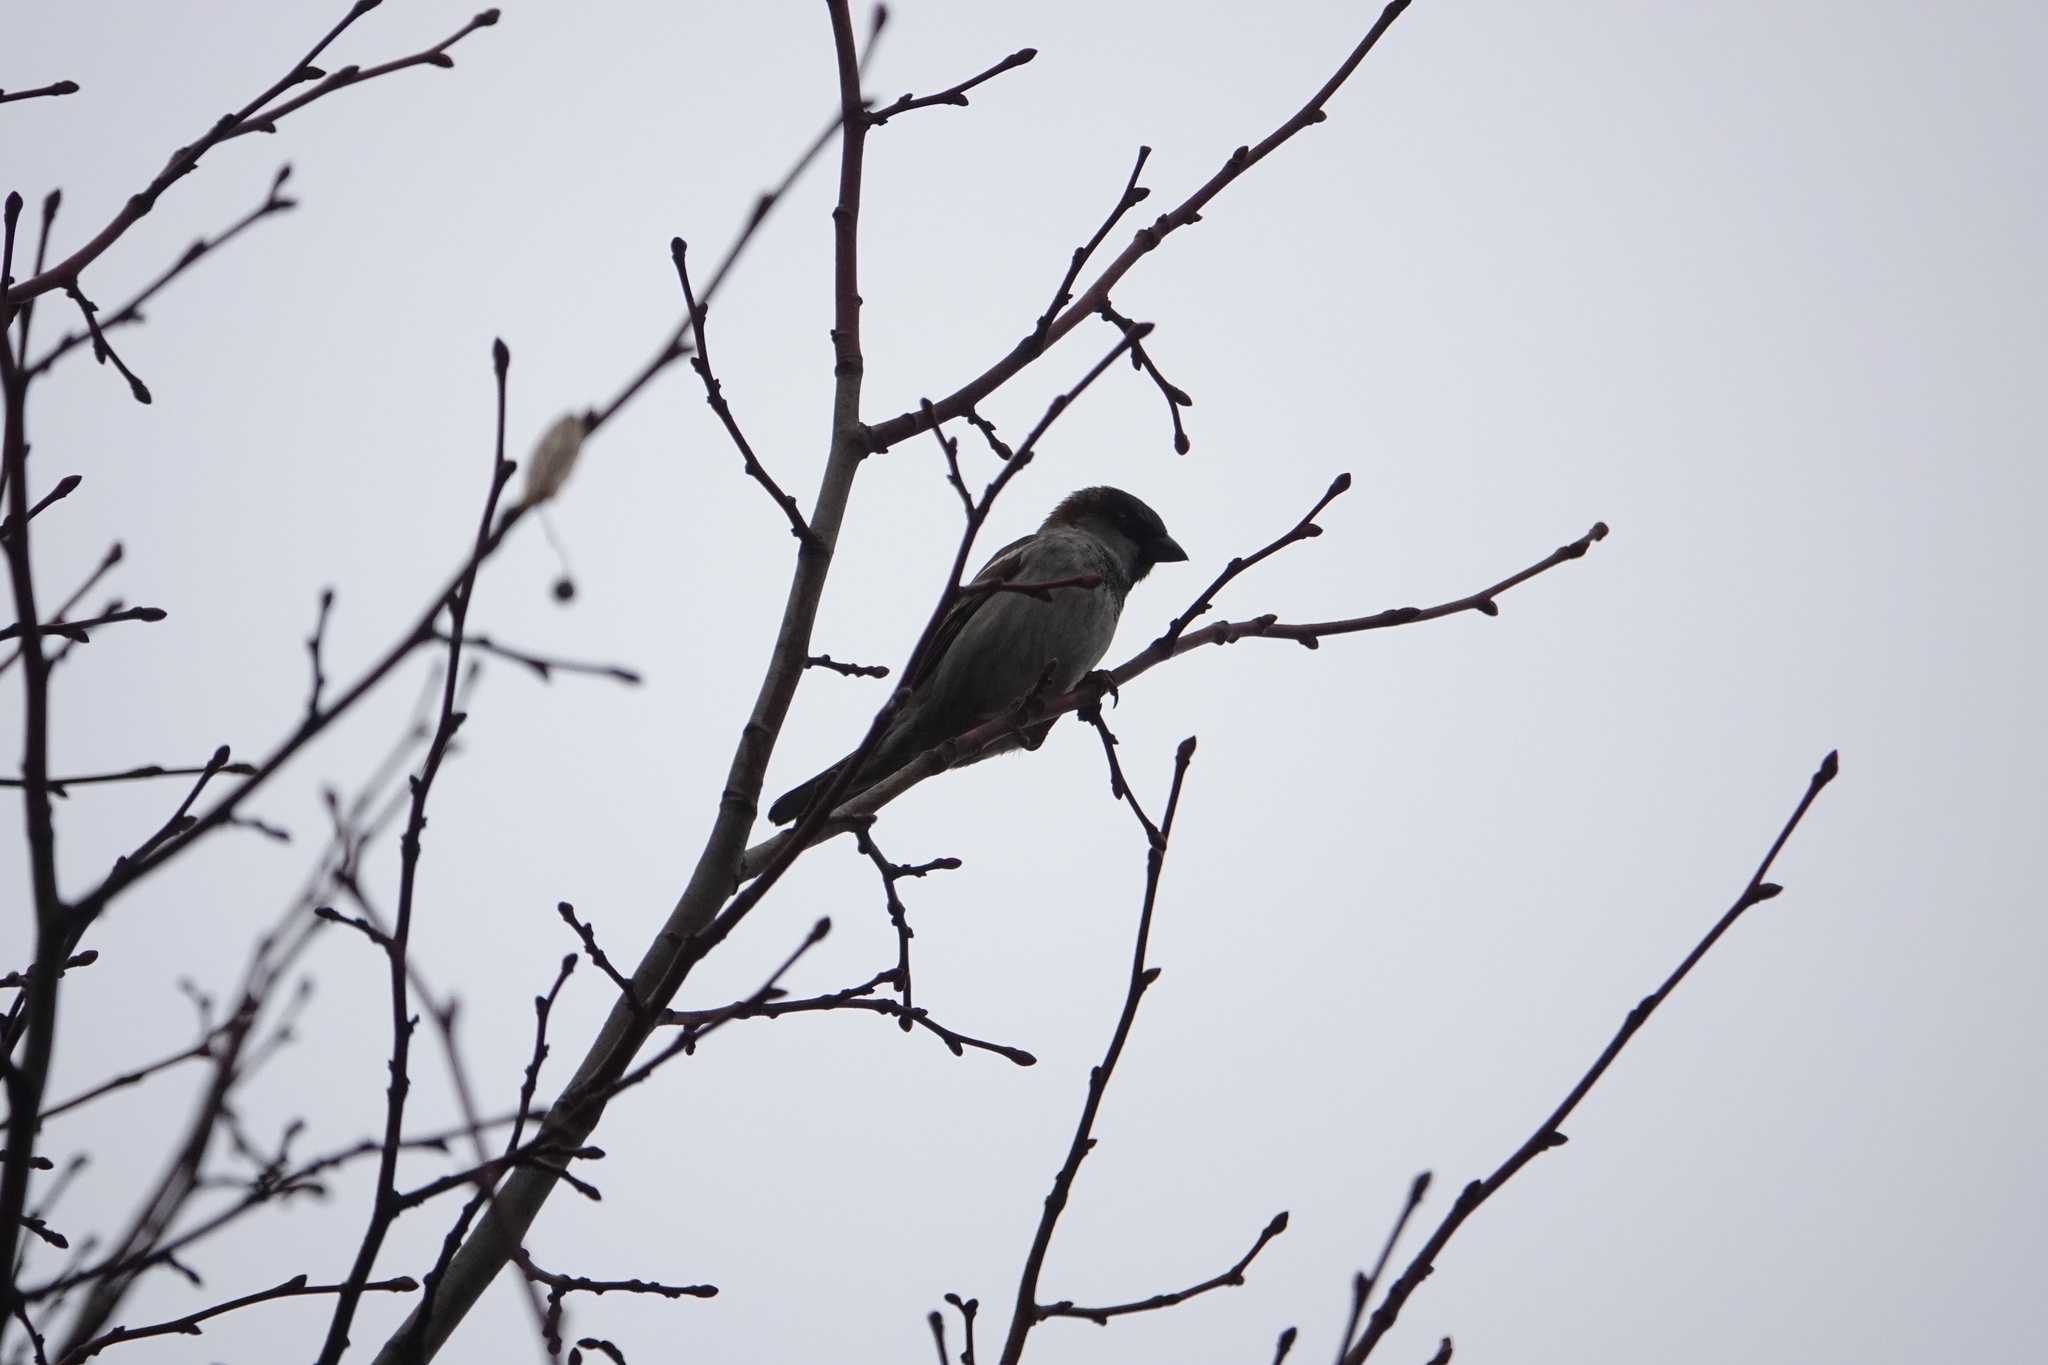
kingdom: Animalia
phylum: Chordata
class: Aves
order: Passeriformes
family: Passeridae
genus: Passer
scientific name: Passer domesticus
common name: House sparrow
